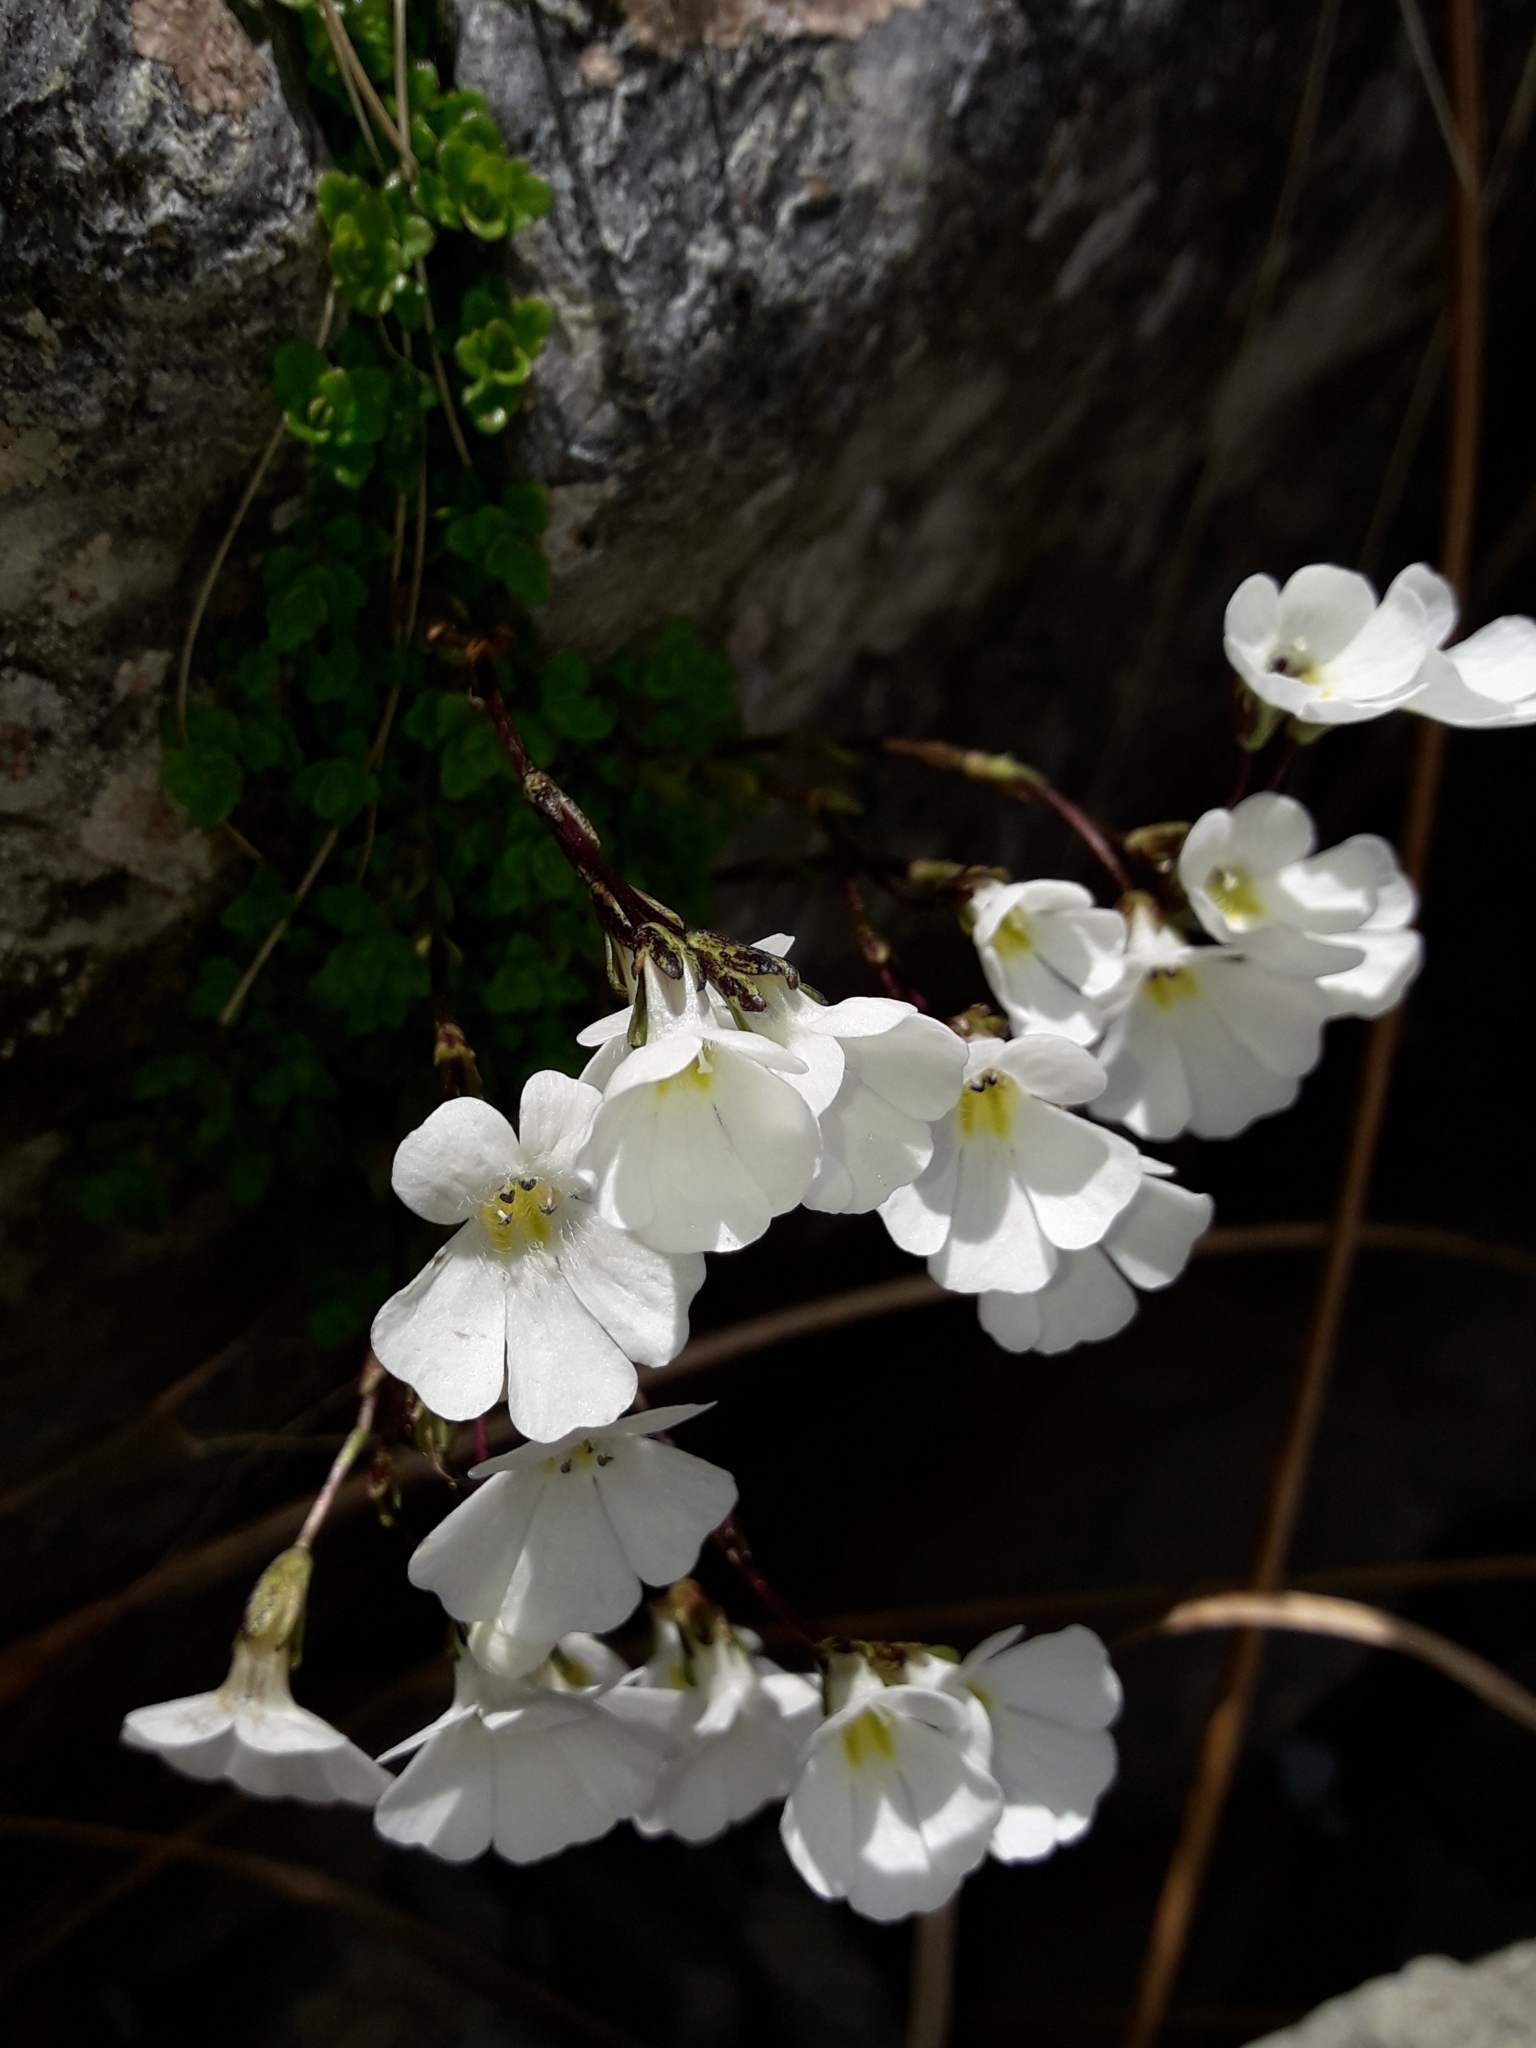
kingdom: Plantae
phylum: Tracheophyta
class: Magnoliopsida
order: Lamiales
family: Plantaginaceae
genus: Ourisia
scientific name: Ourisia caespitosa
